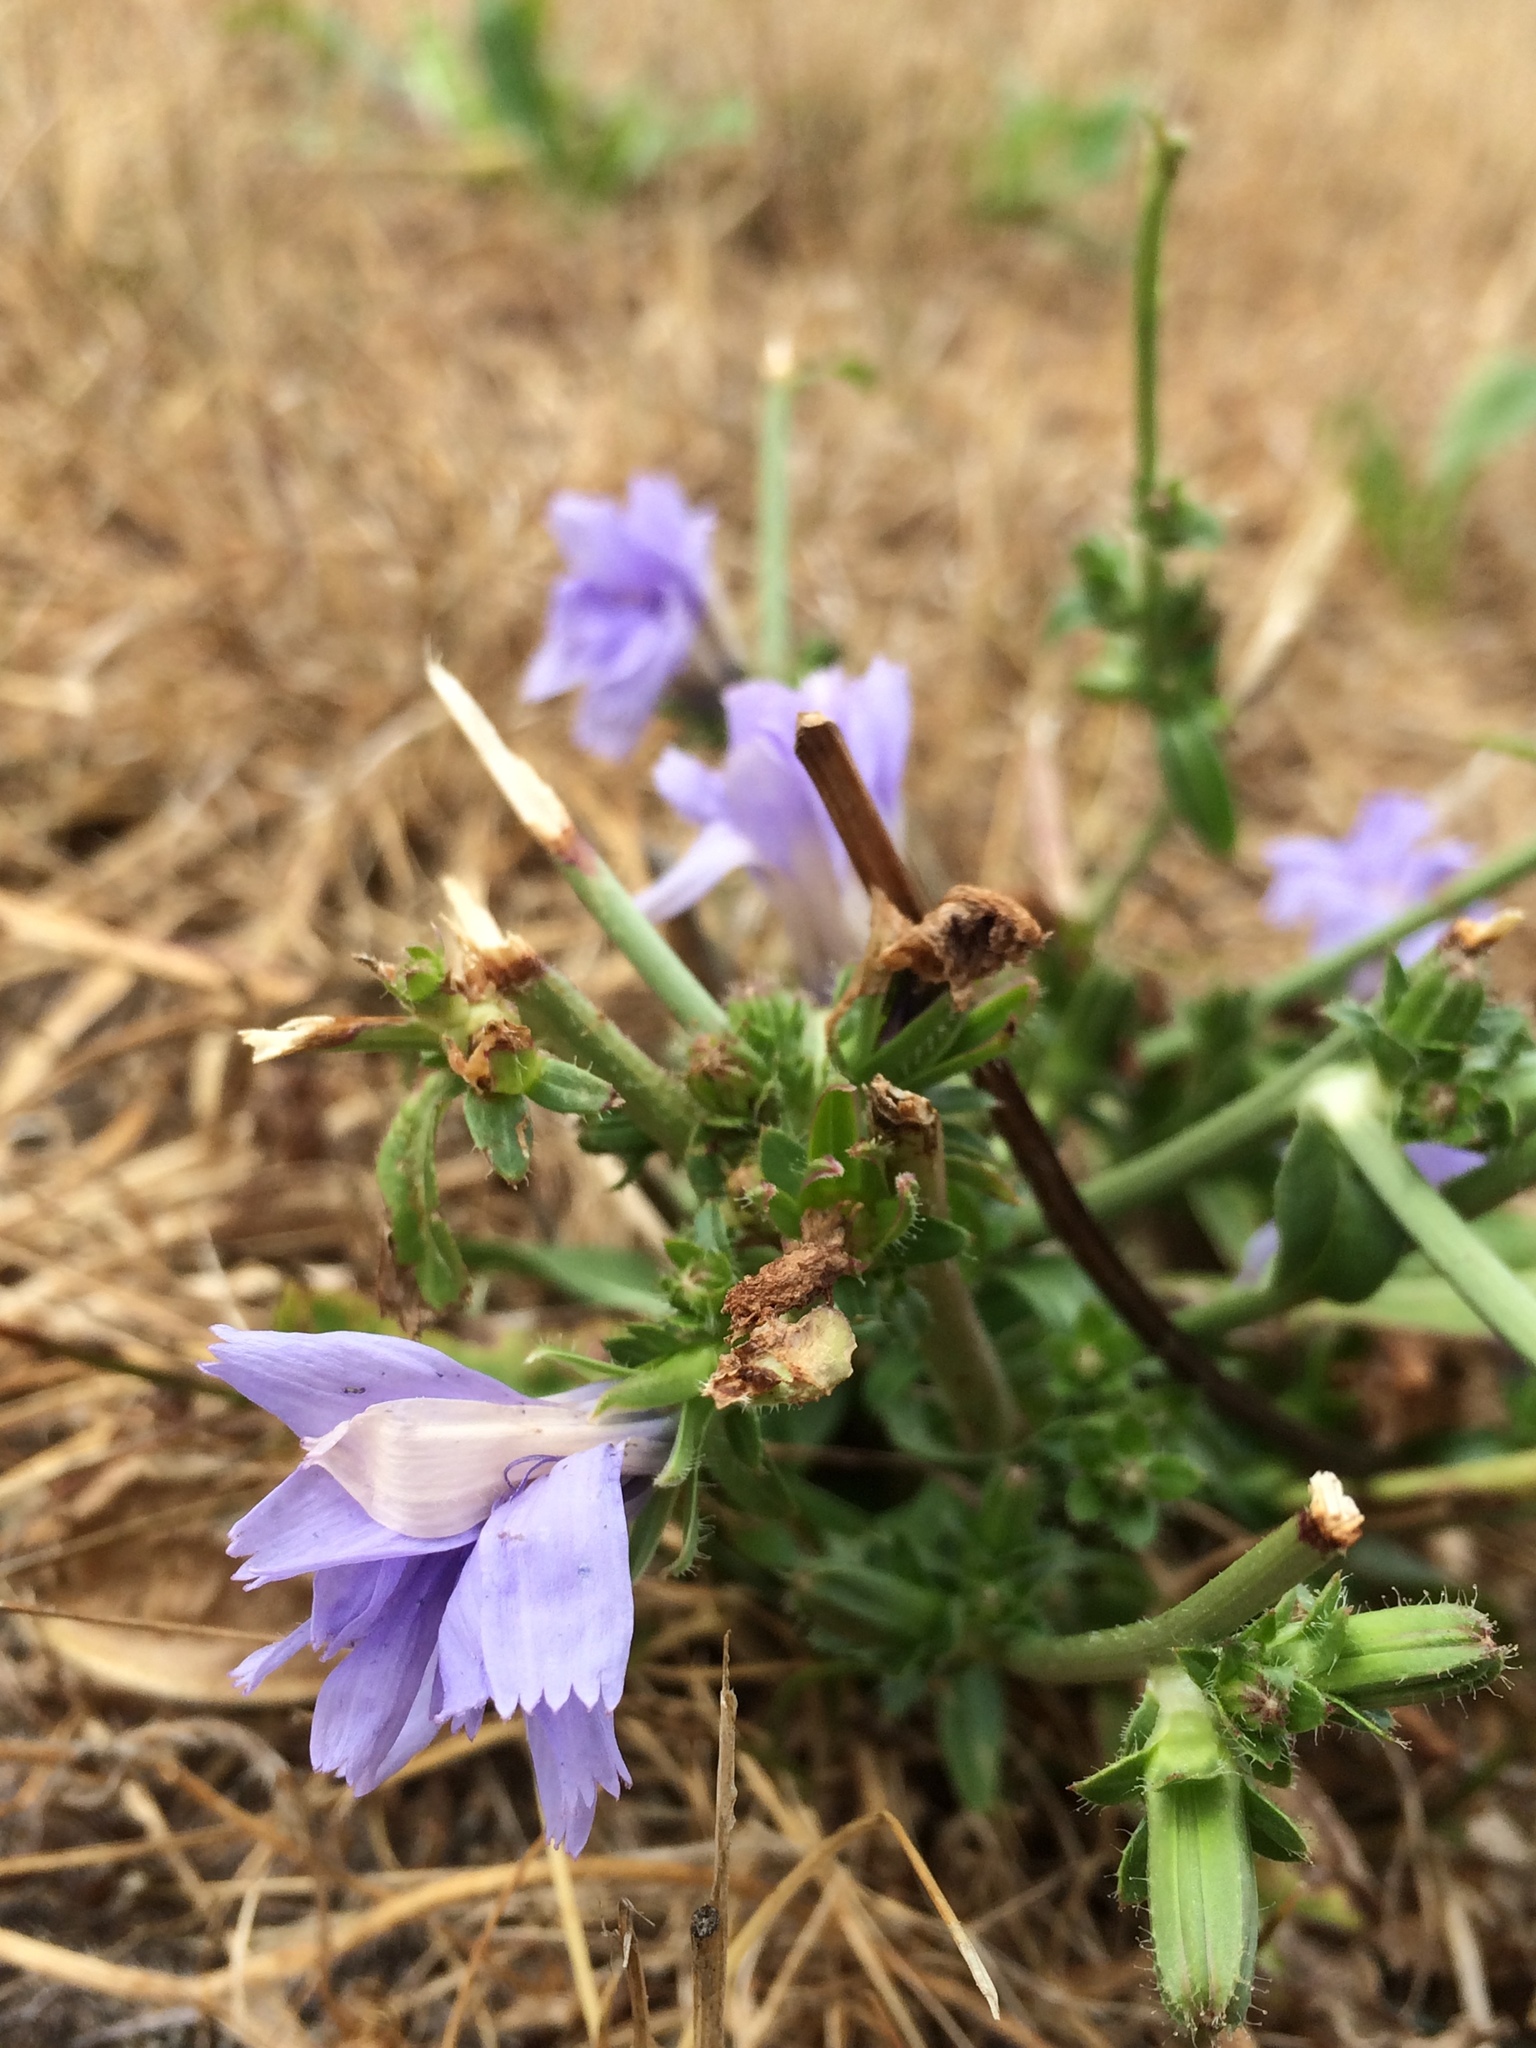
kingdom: Plantae
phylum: Tracheophyta
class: Magnoliopsida
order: Asterales
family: Asteraceae
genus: Cichorium
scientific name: Cichorium intybus
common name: Chicory
